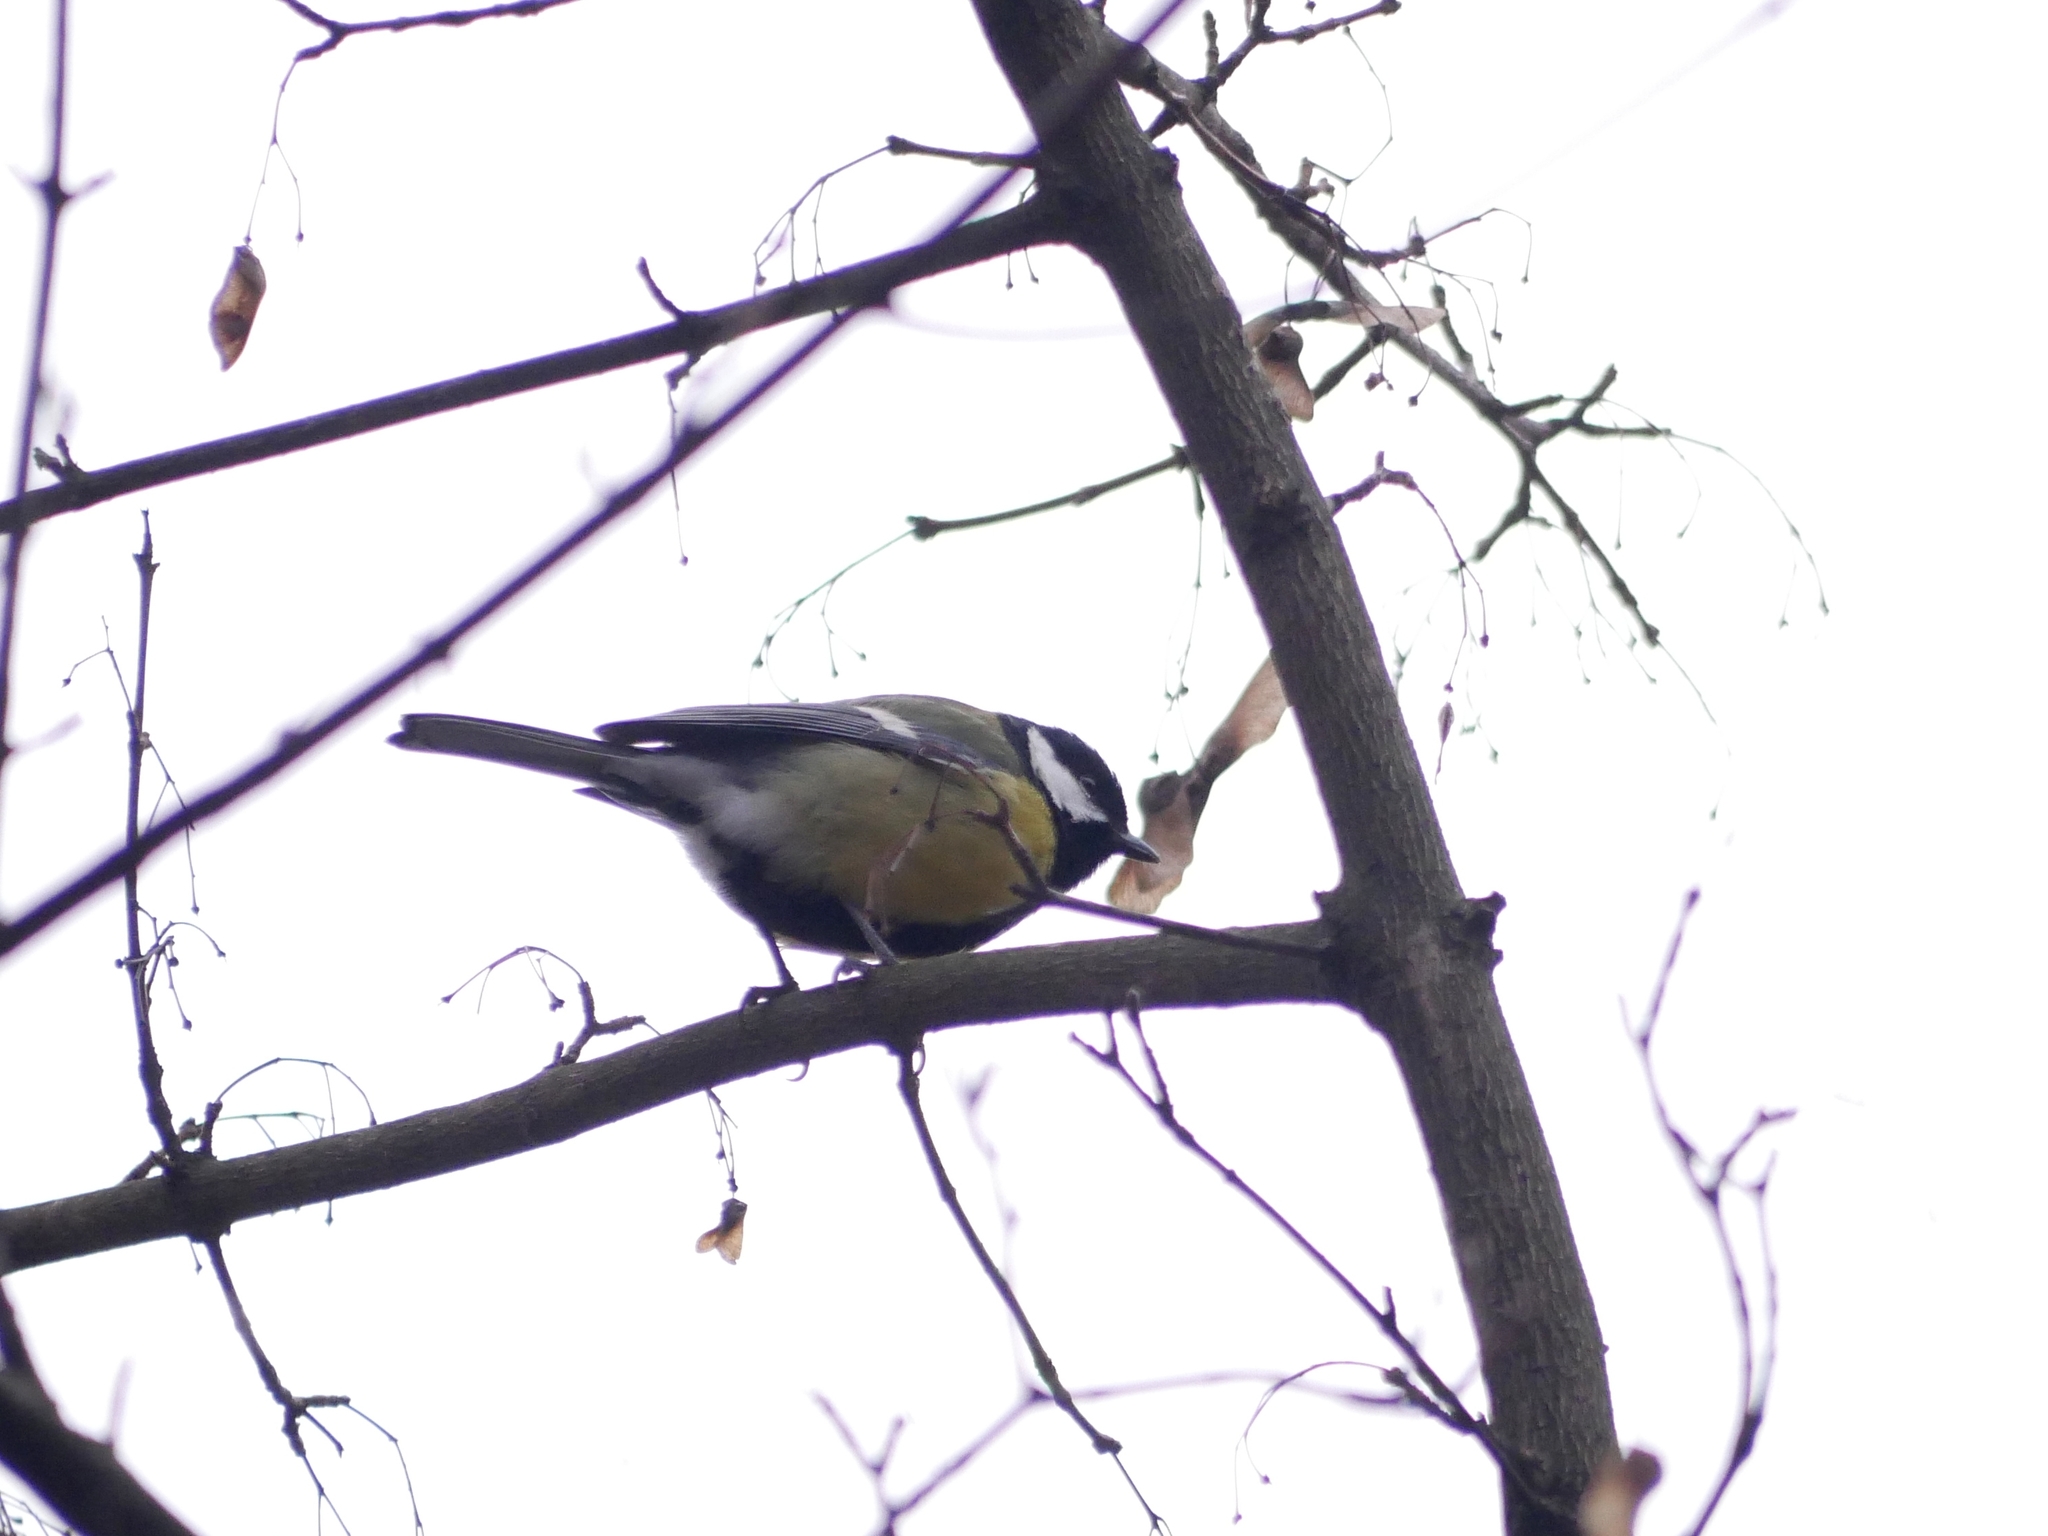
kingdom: Animalia
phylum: Chordata
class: Aves
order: Passeriformes
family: Paridae
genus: Parus
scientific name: Parus major
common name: Great tit
